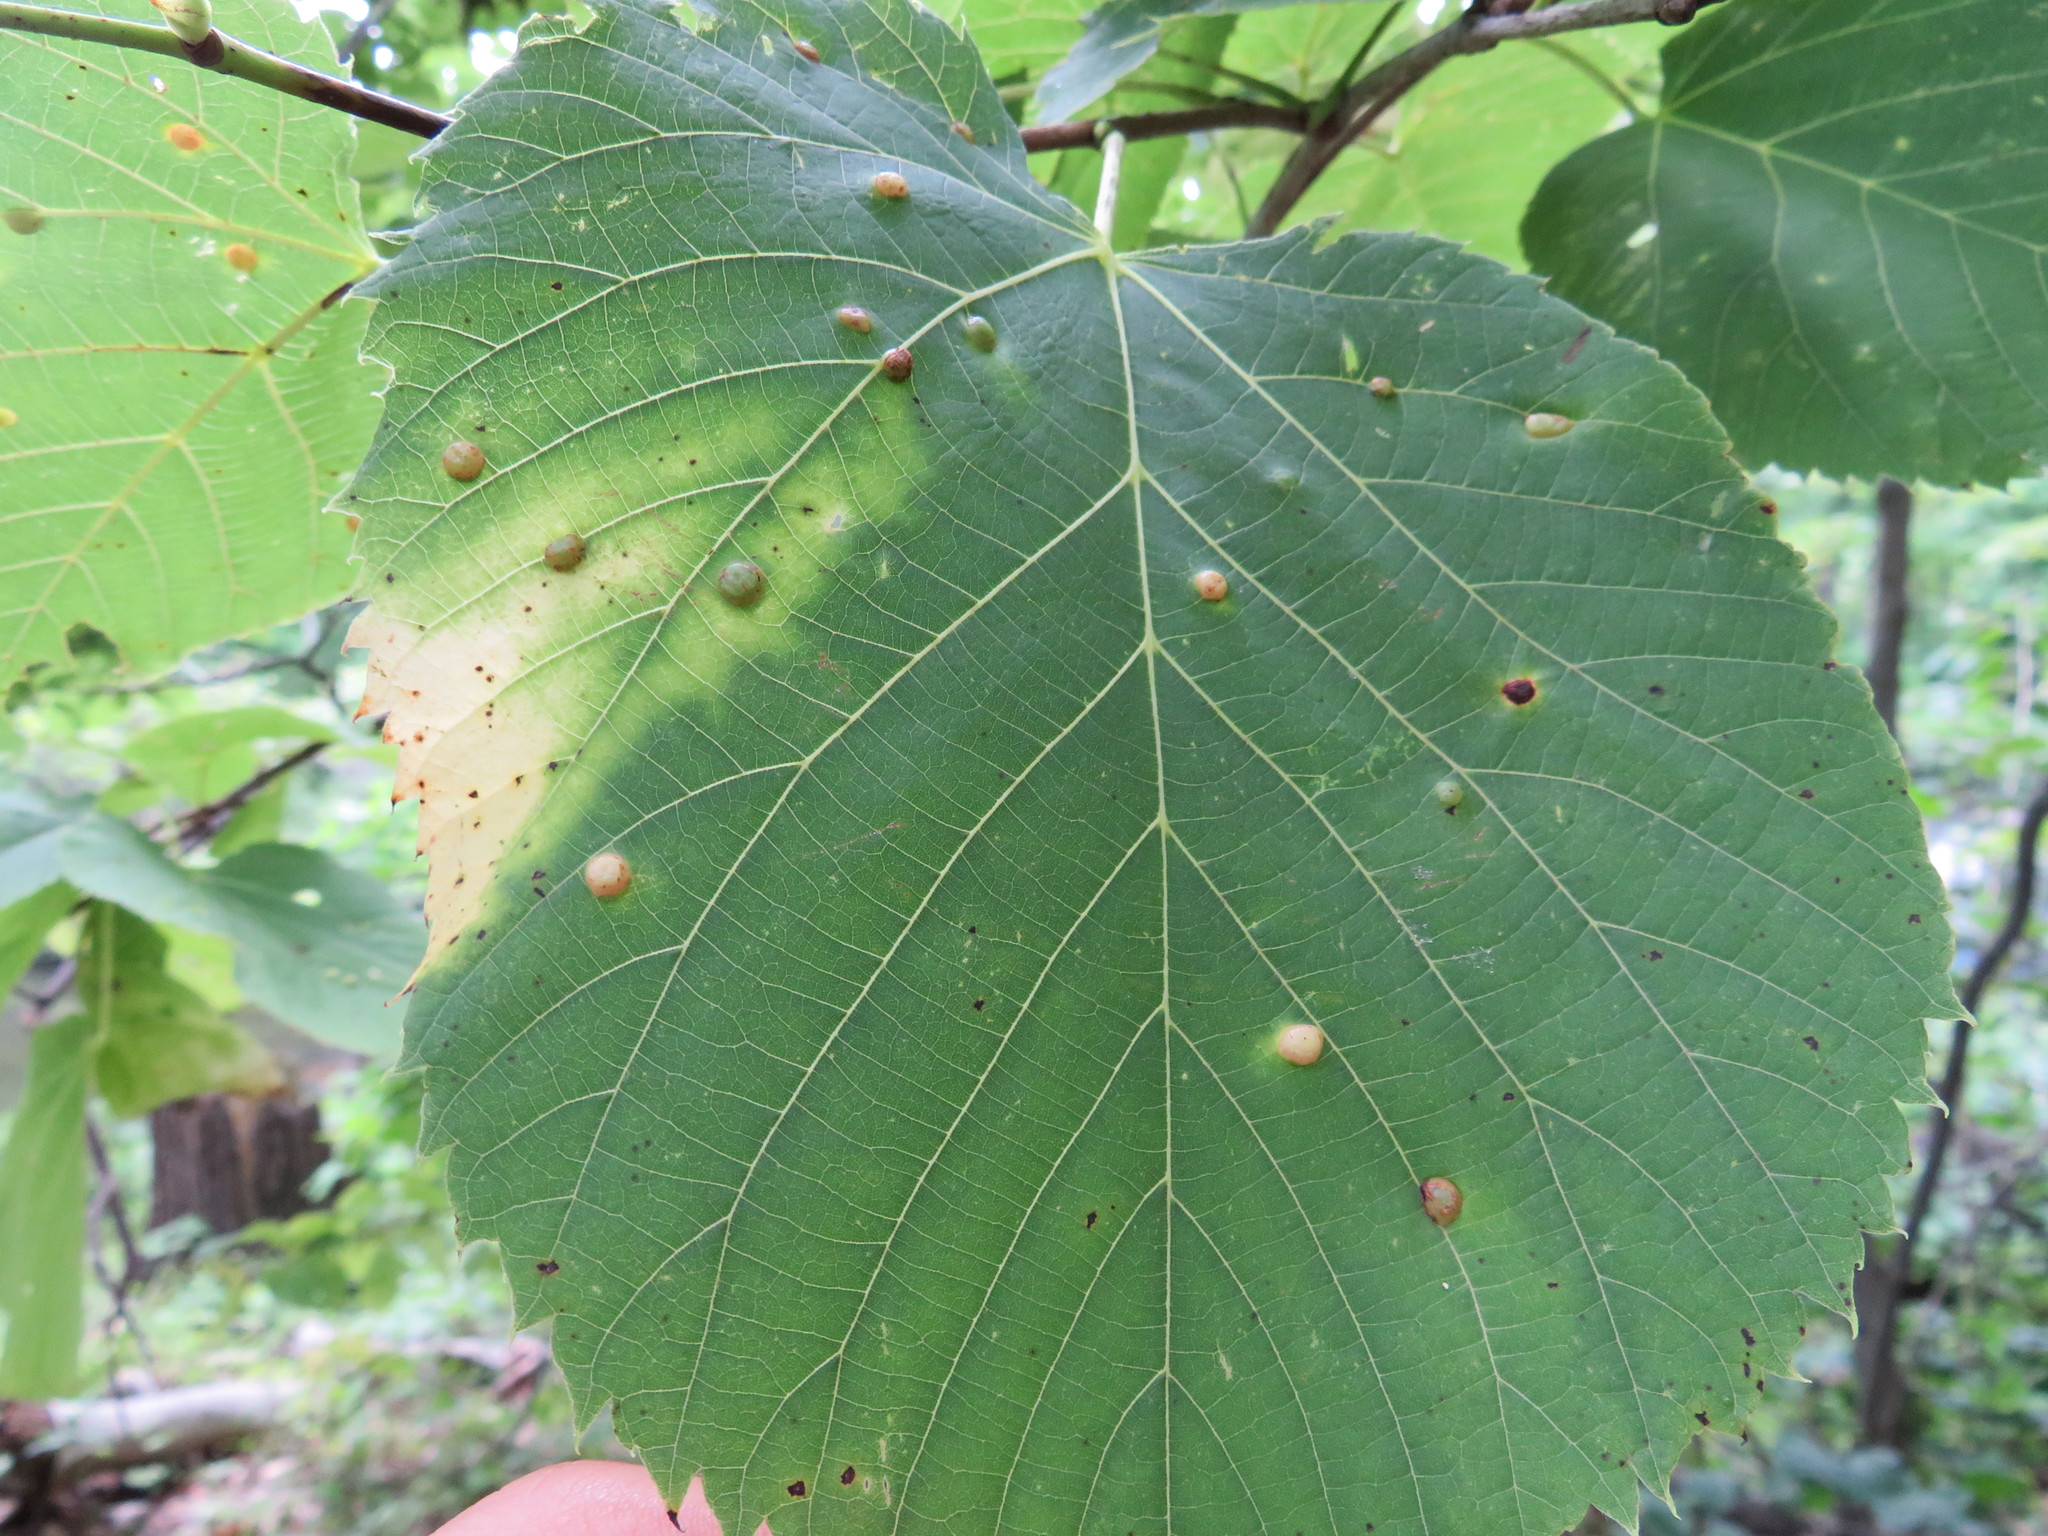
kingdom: Animalia
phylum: Arthropoda
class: Insecta
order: Diptera
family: Cecidomyiidae
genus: Contarinia
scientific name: Contarinia verrucicola
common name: Linden wart gall midge
